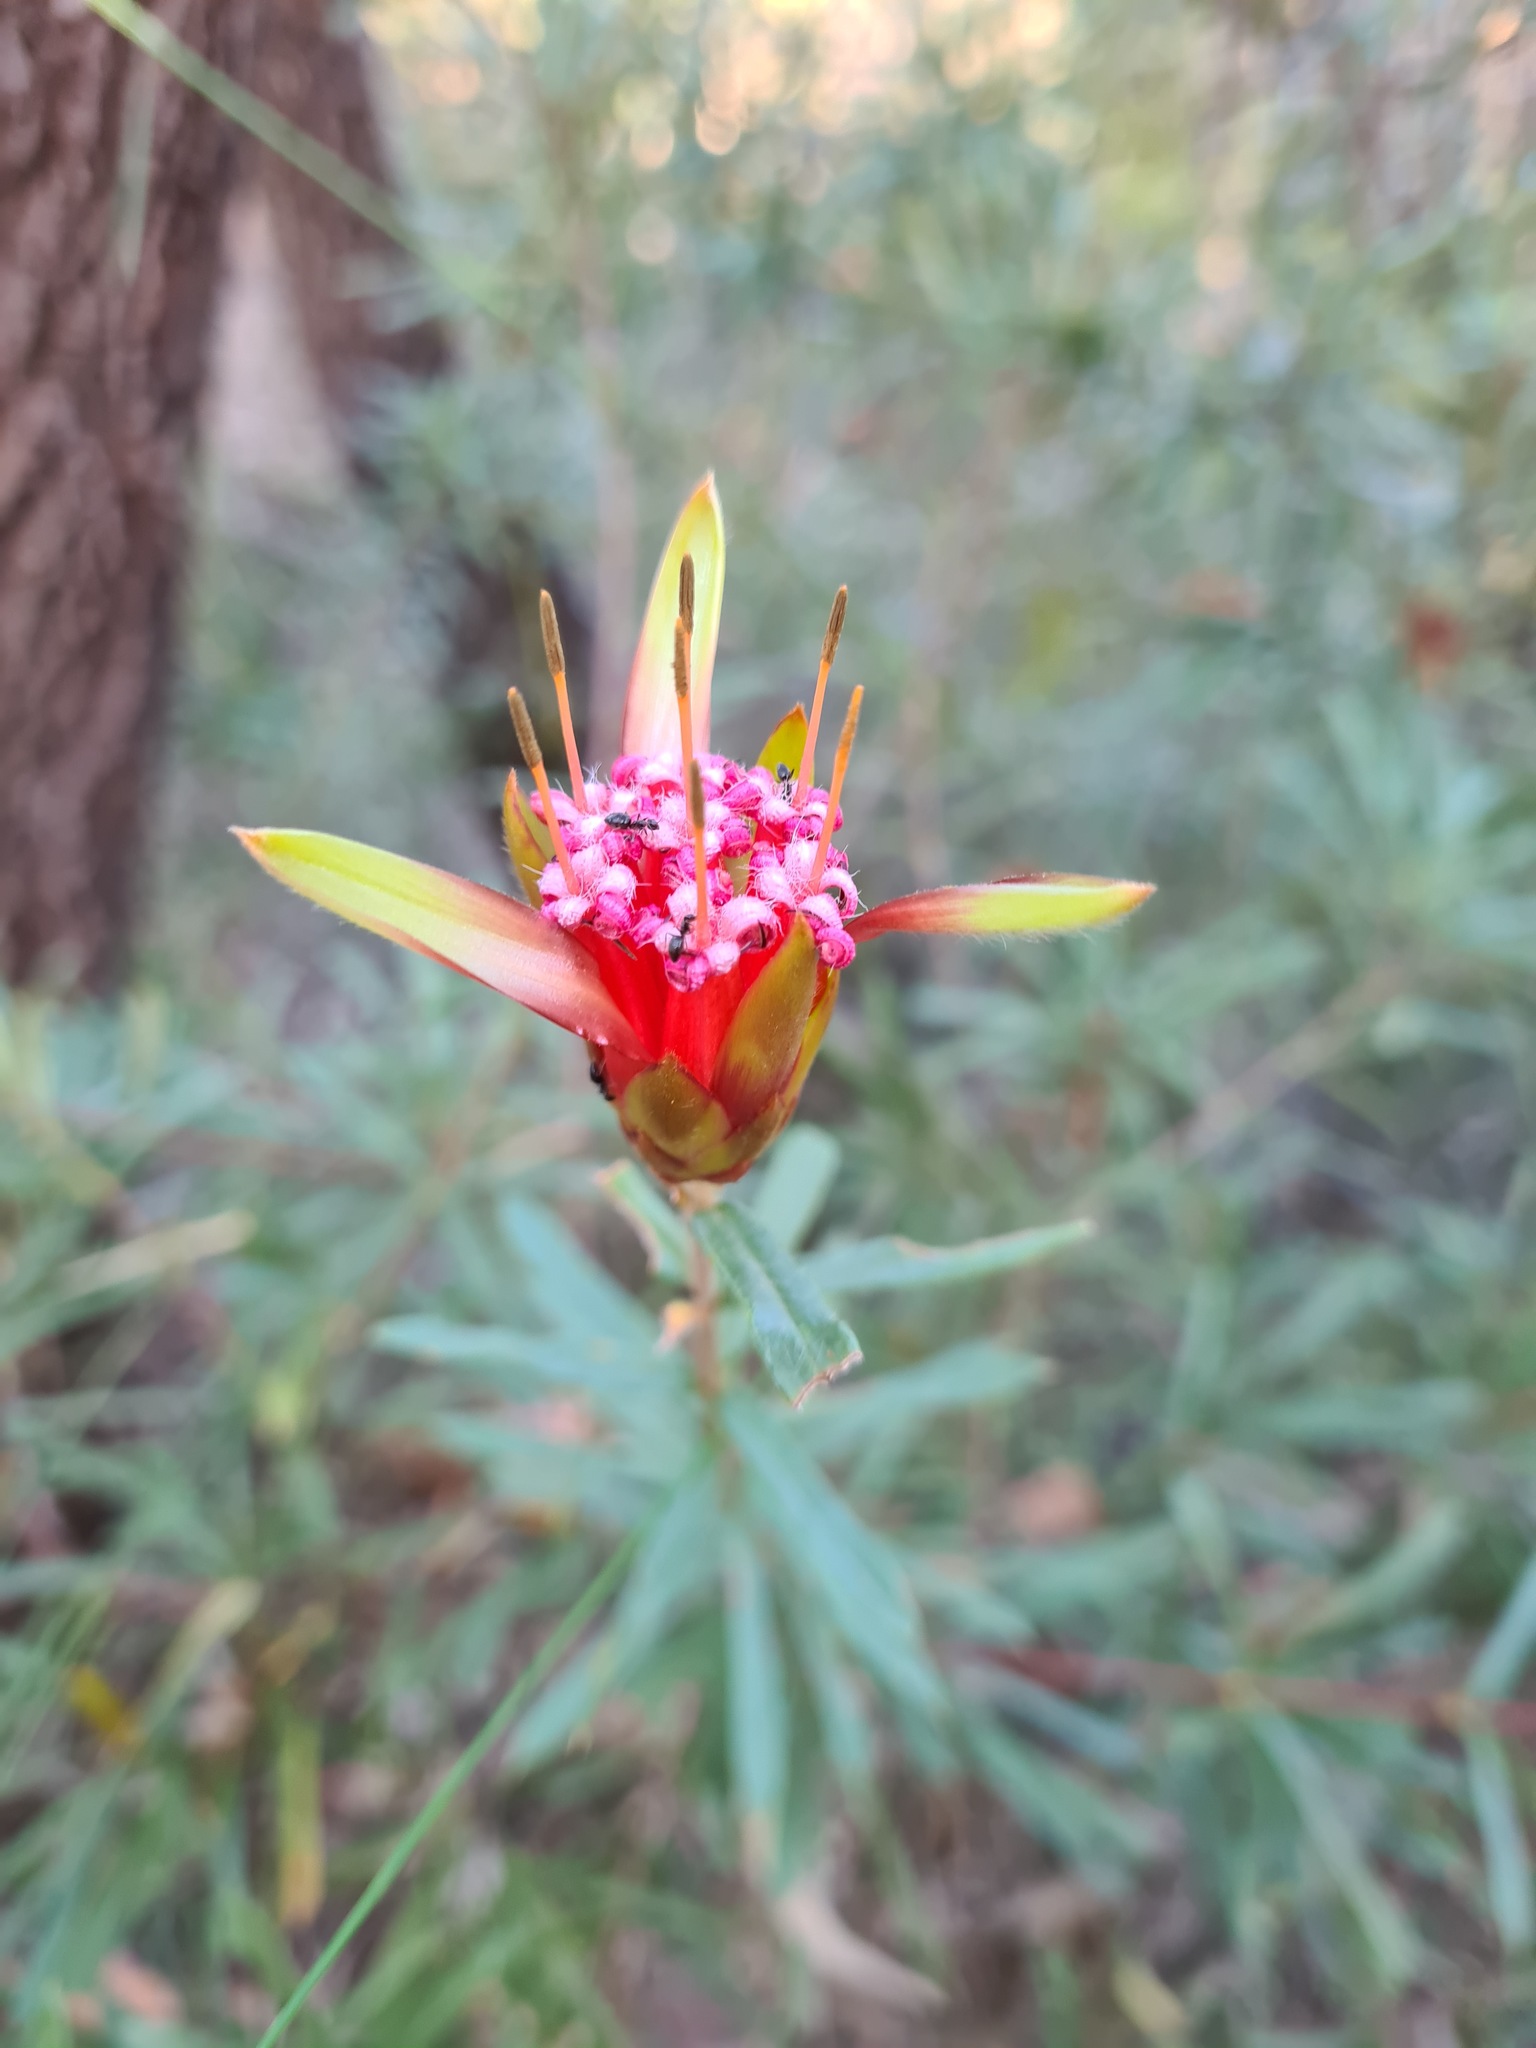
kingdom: Plantae
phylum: Tracheophyta
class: Magnoliopsida
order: Proteales
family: Proteaceae
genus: Lambertia
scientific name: Lambertia formosa
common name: Mountain-devil
